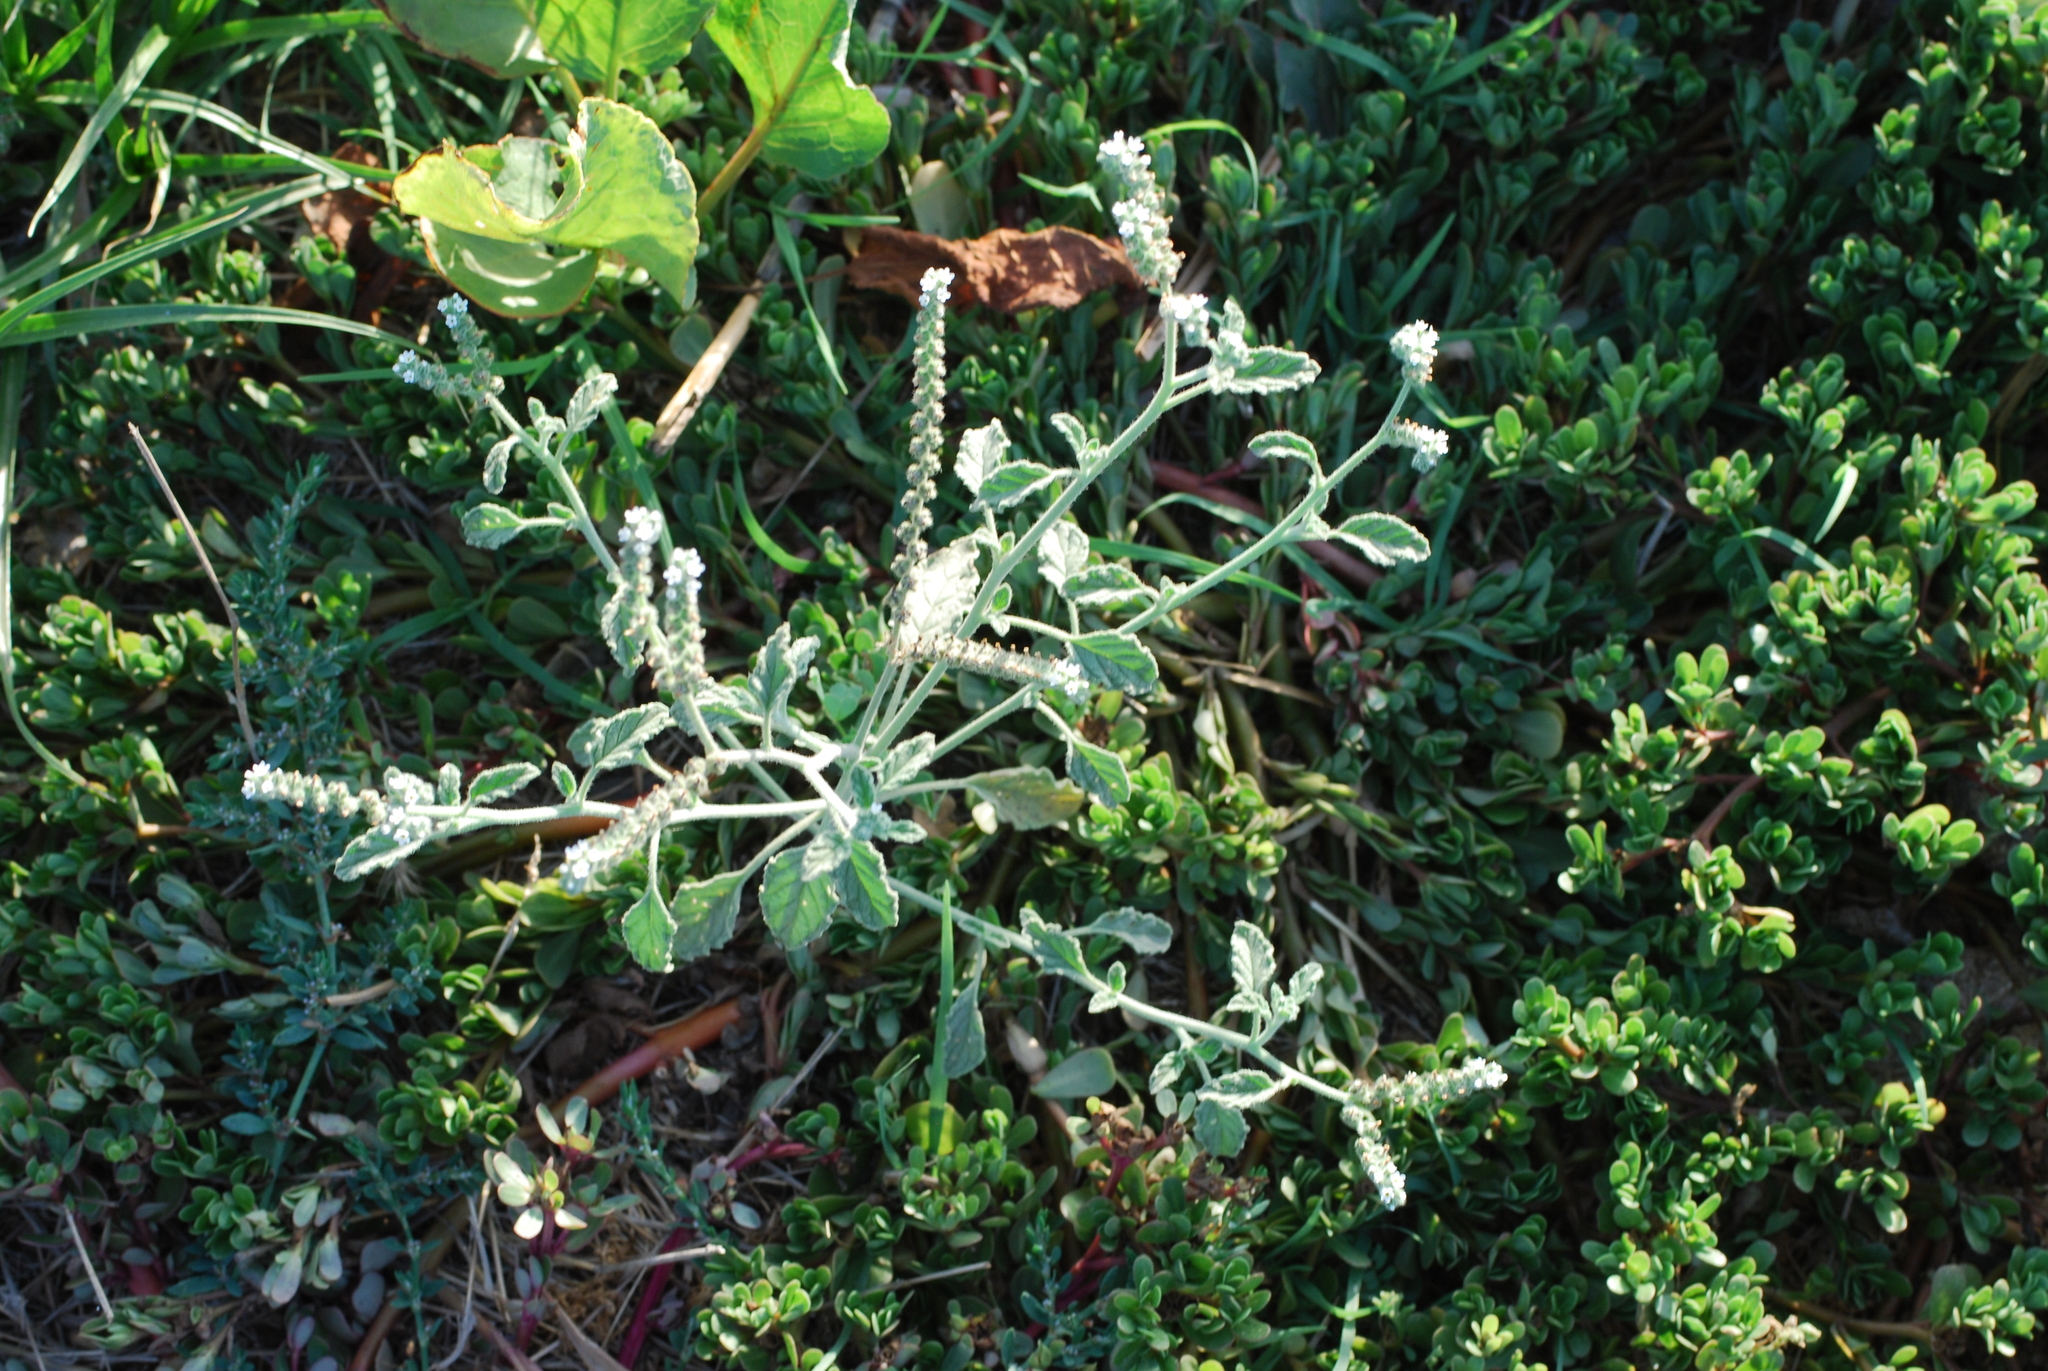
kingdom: Plantae
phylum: Tracheophyta
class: Magnoliopsida
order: Boraginales
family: Heliotropiaceae
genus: Heliotropium
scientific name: Heliotropium europaeum
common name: European heliotrope
